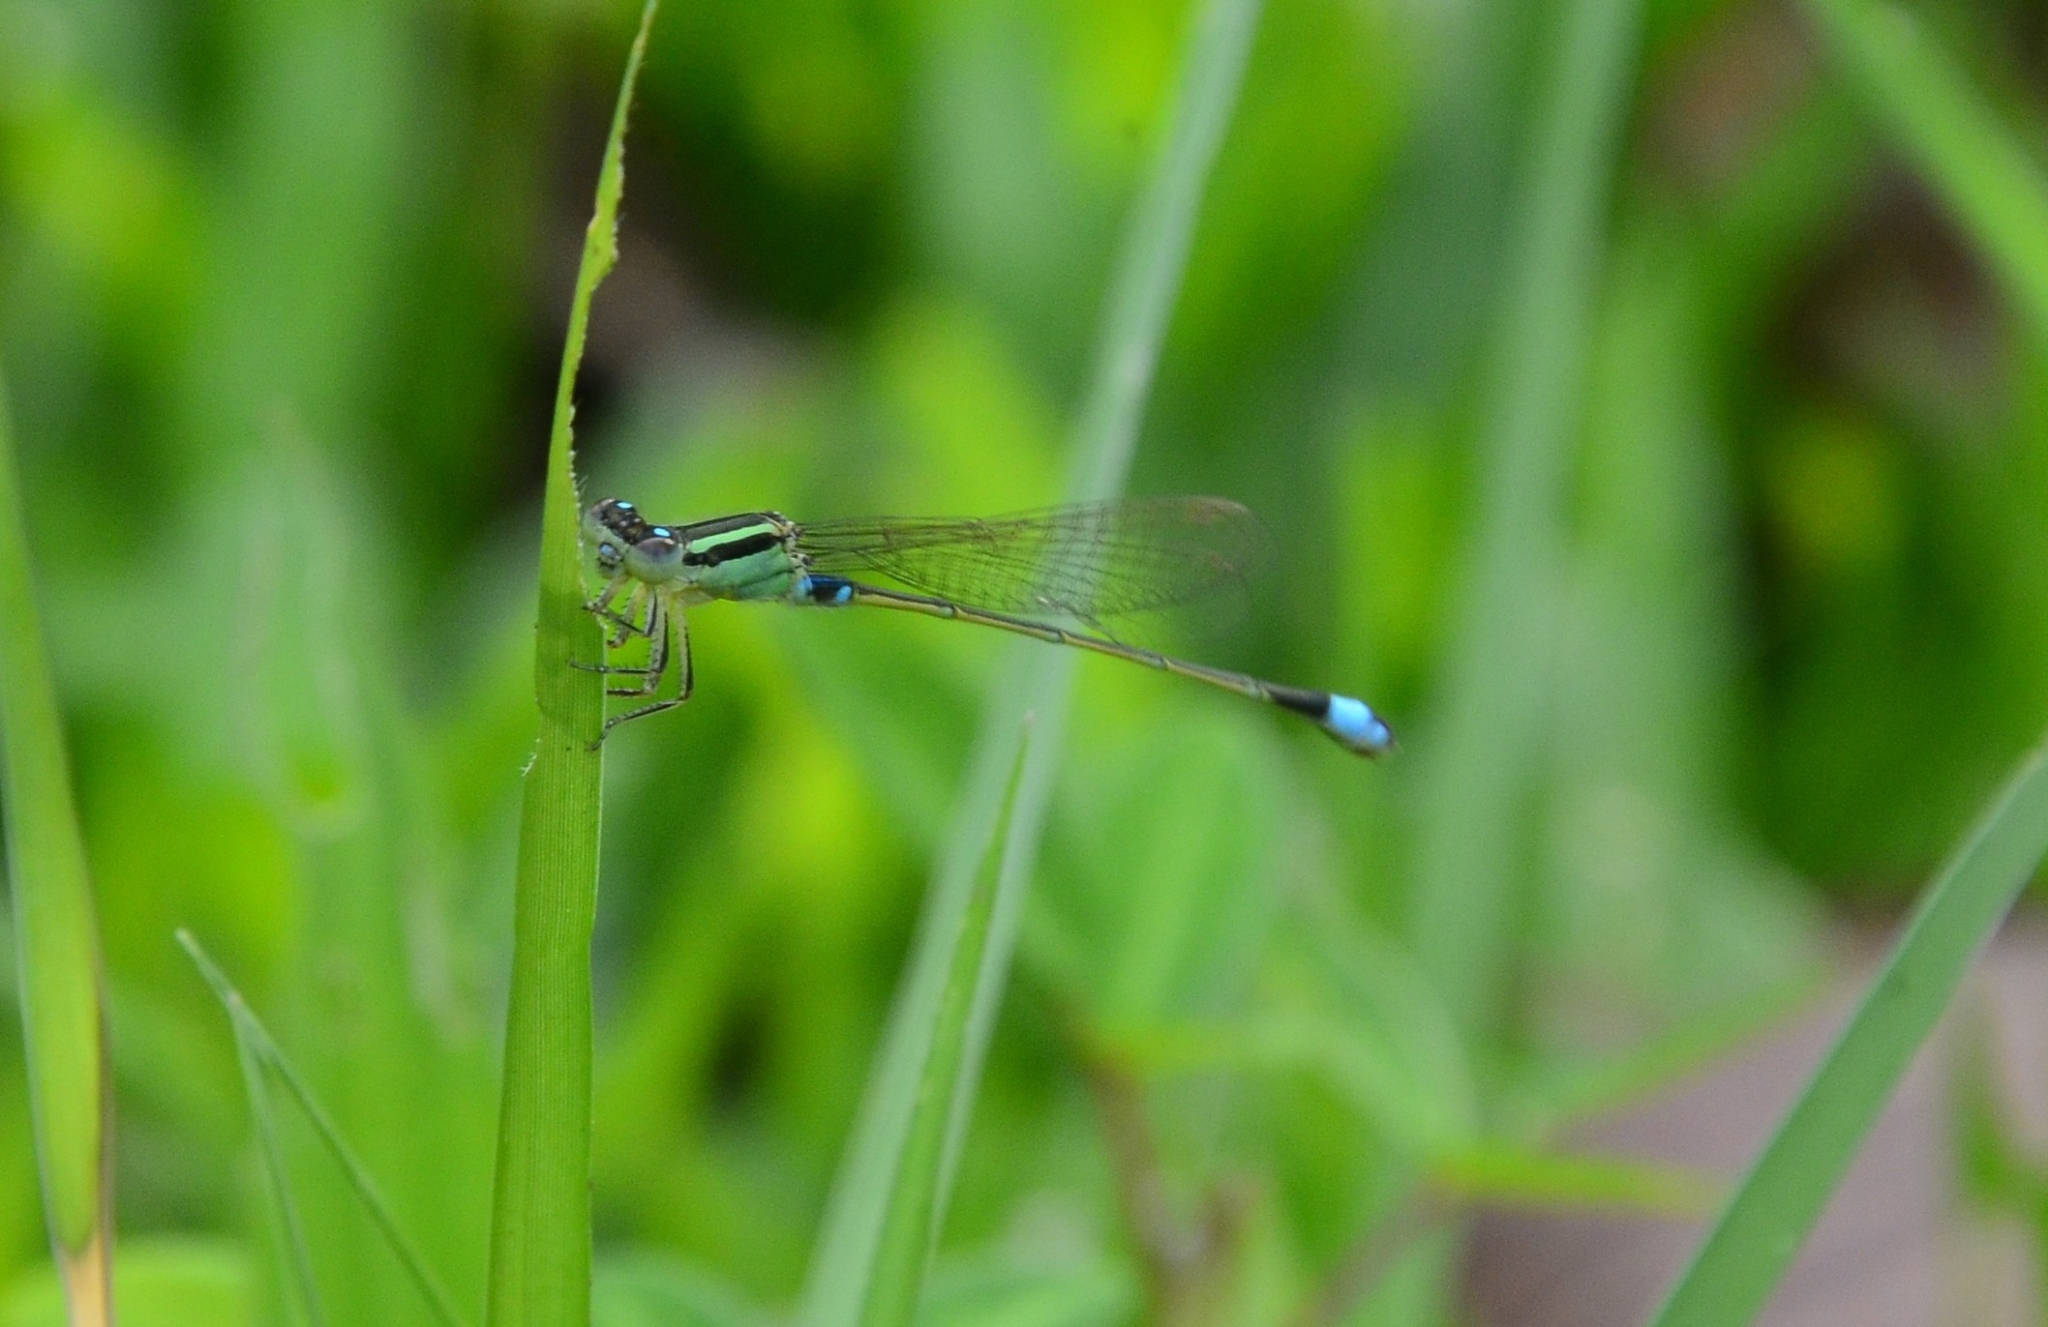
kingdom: Animalia
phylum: Arthropoda
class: Insecta
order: Odonata
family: Coenagrionidae
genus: Ischnura
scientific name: Ischnura senegalensis
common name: Tropical bluetail
